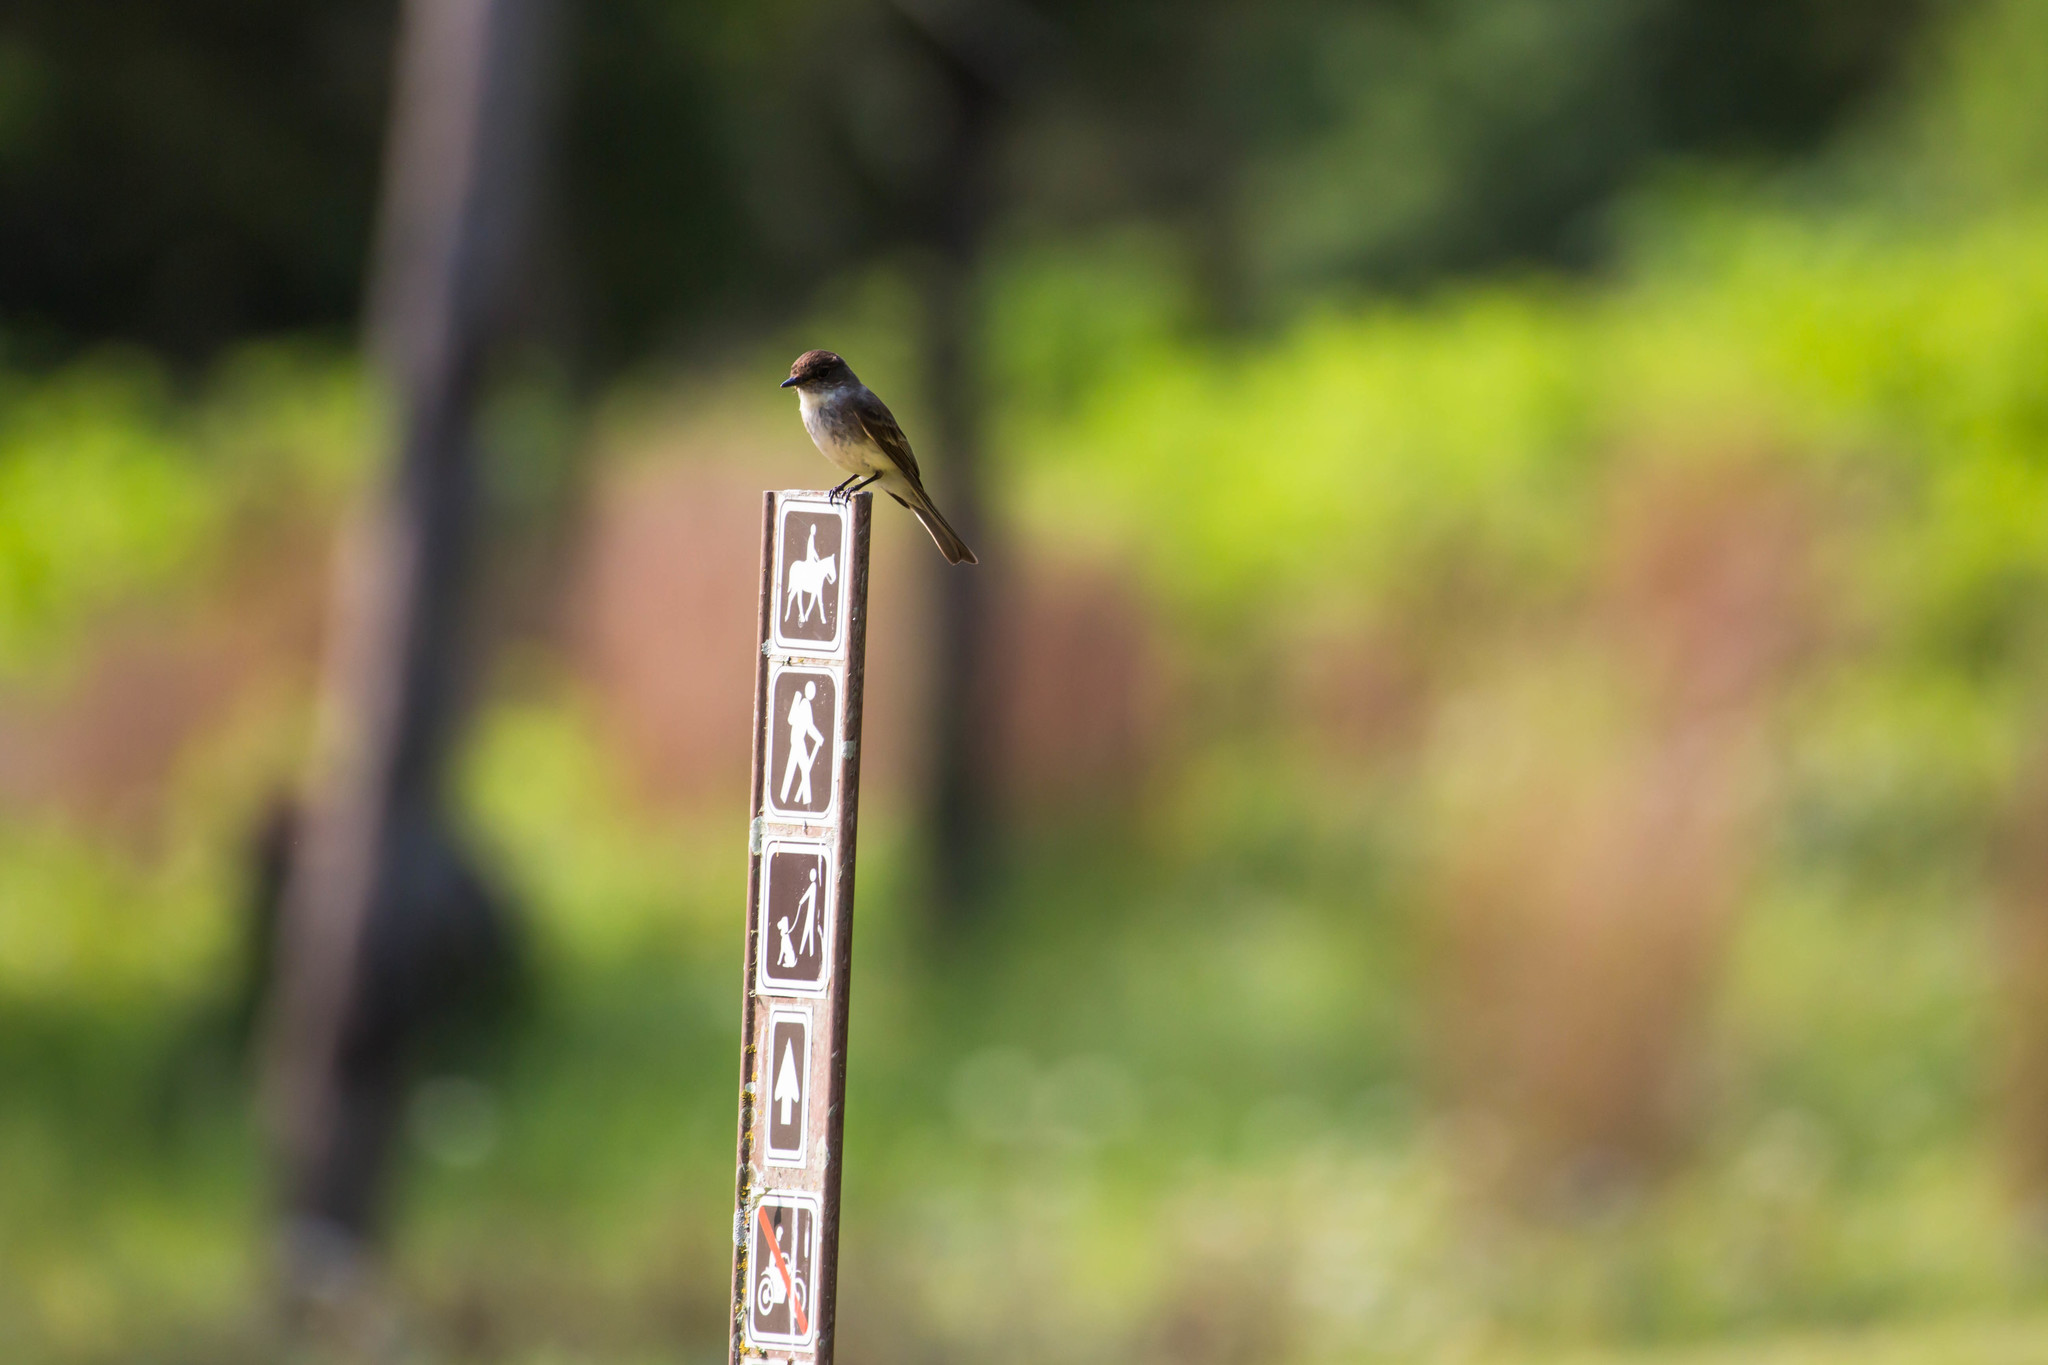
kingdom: Animalia
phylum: Chordata
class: Aves
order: Passeriformes
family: Tyrannidae
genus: Sayornis
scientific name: Sayornis phoebe
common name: Eastern phoebe
